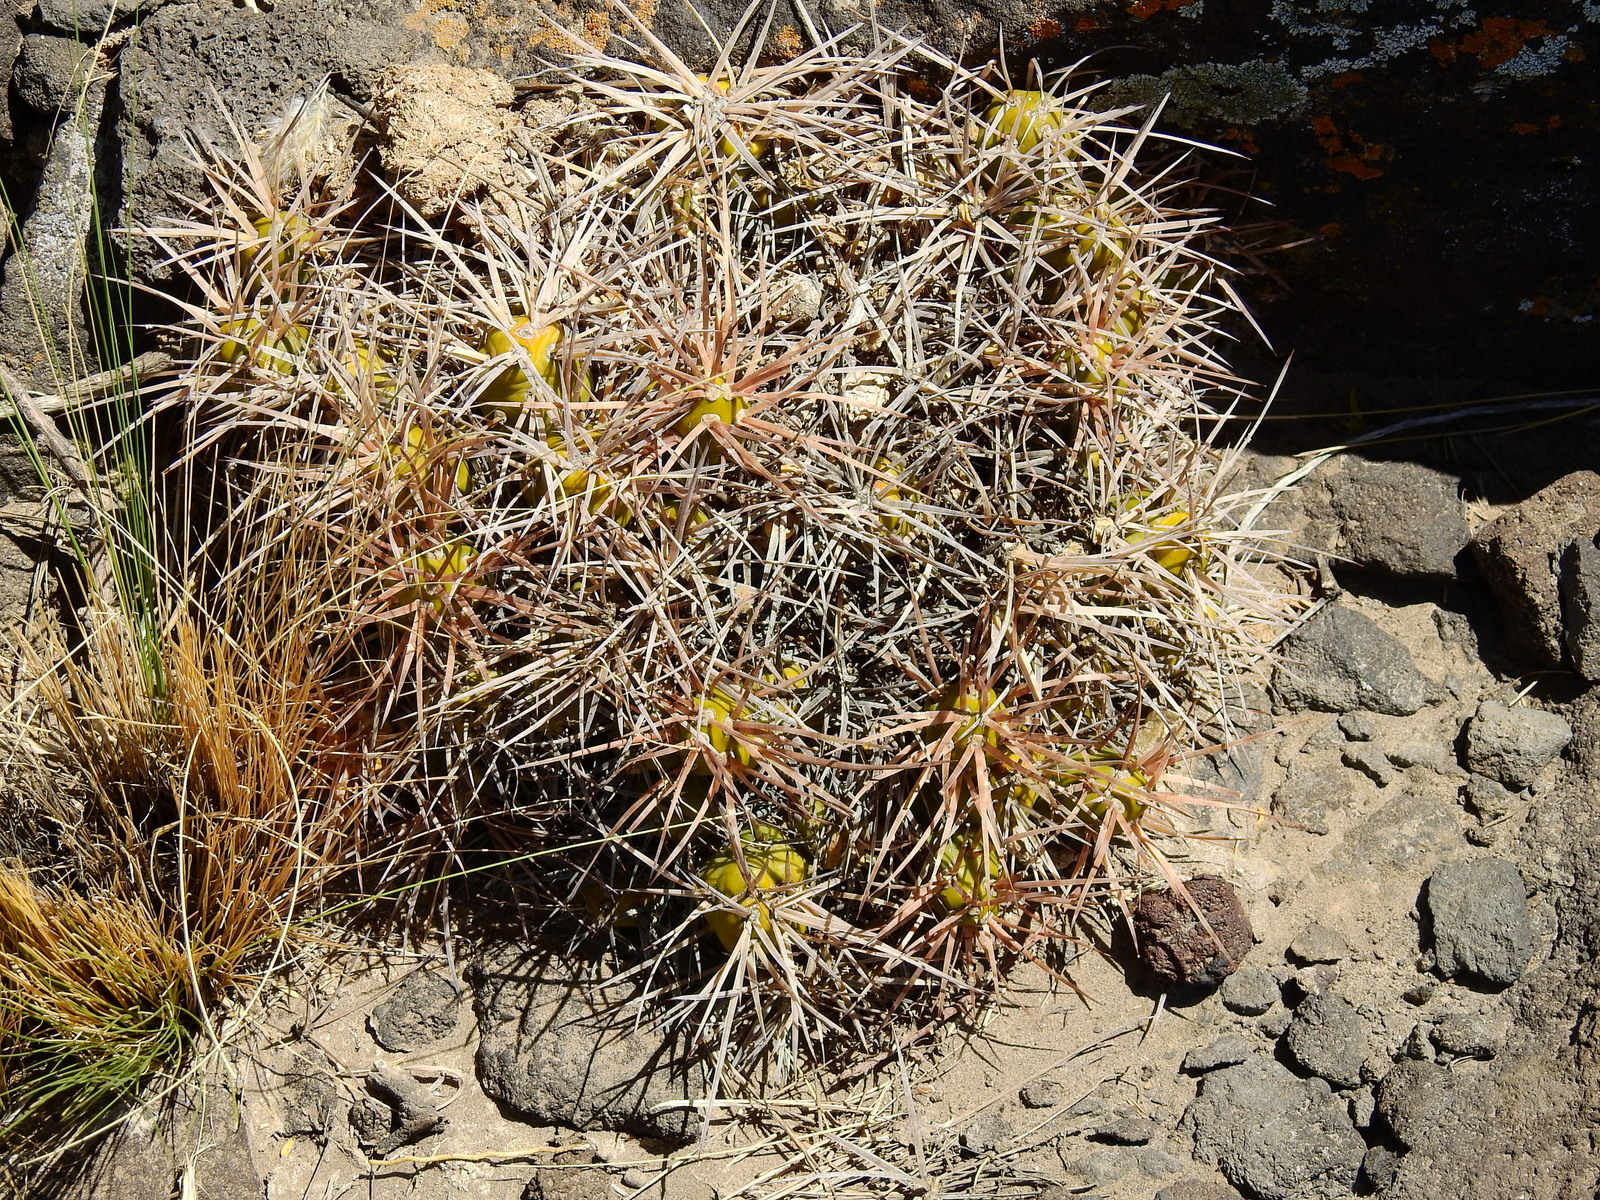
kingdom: Plantae
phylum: Tracheophyta
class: Magnoliopsida
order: Caryophyllales
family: Cactaceae
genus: Maihueniopsis
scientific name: Maihueniopsis hickenii
